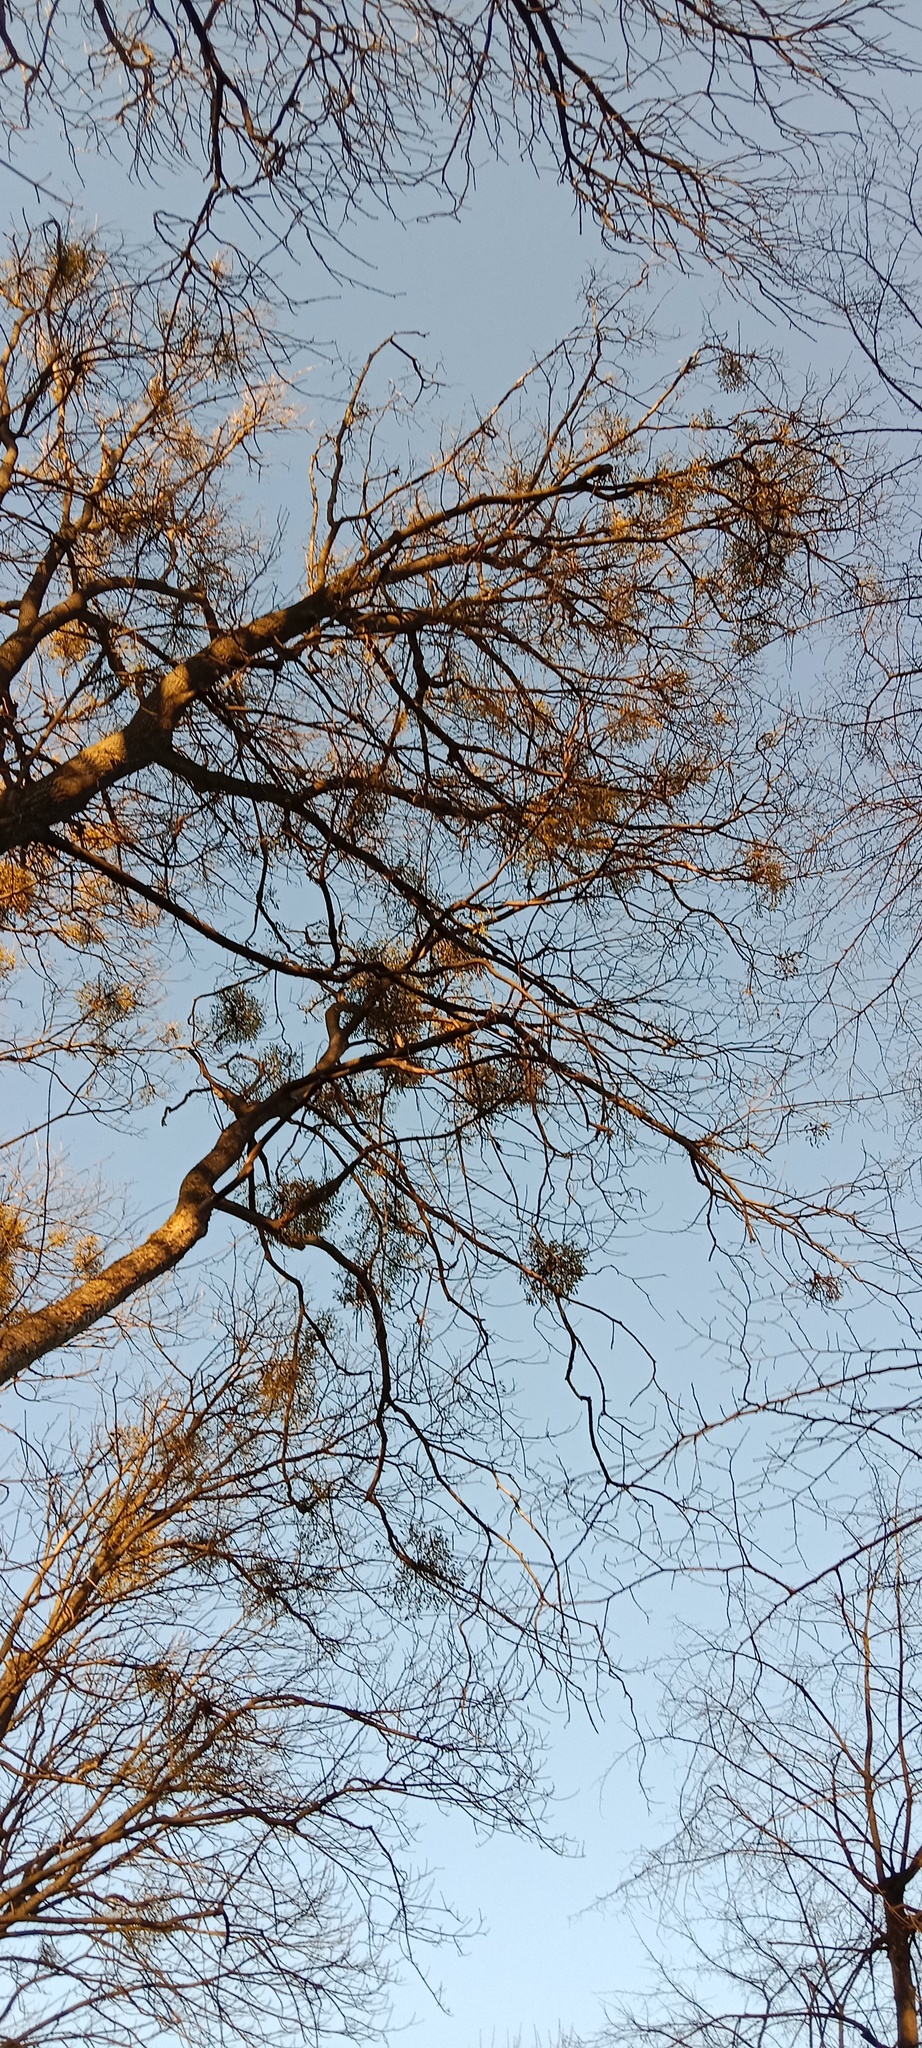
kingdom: Plantae
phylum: Tracheophyta
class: Magnoliopsida
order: Santalales
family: Viscaceae
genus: Viscum
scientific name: Viscum album
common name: Mistletoe
